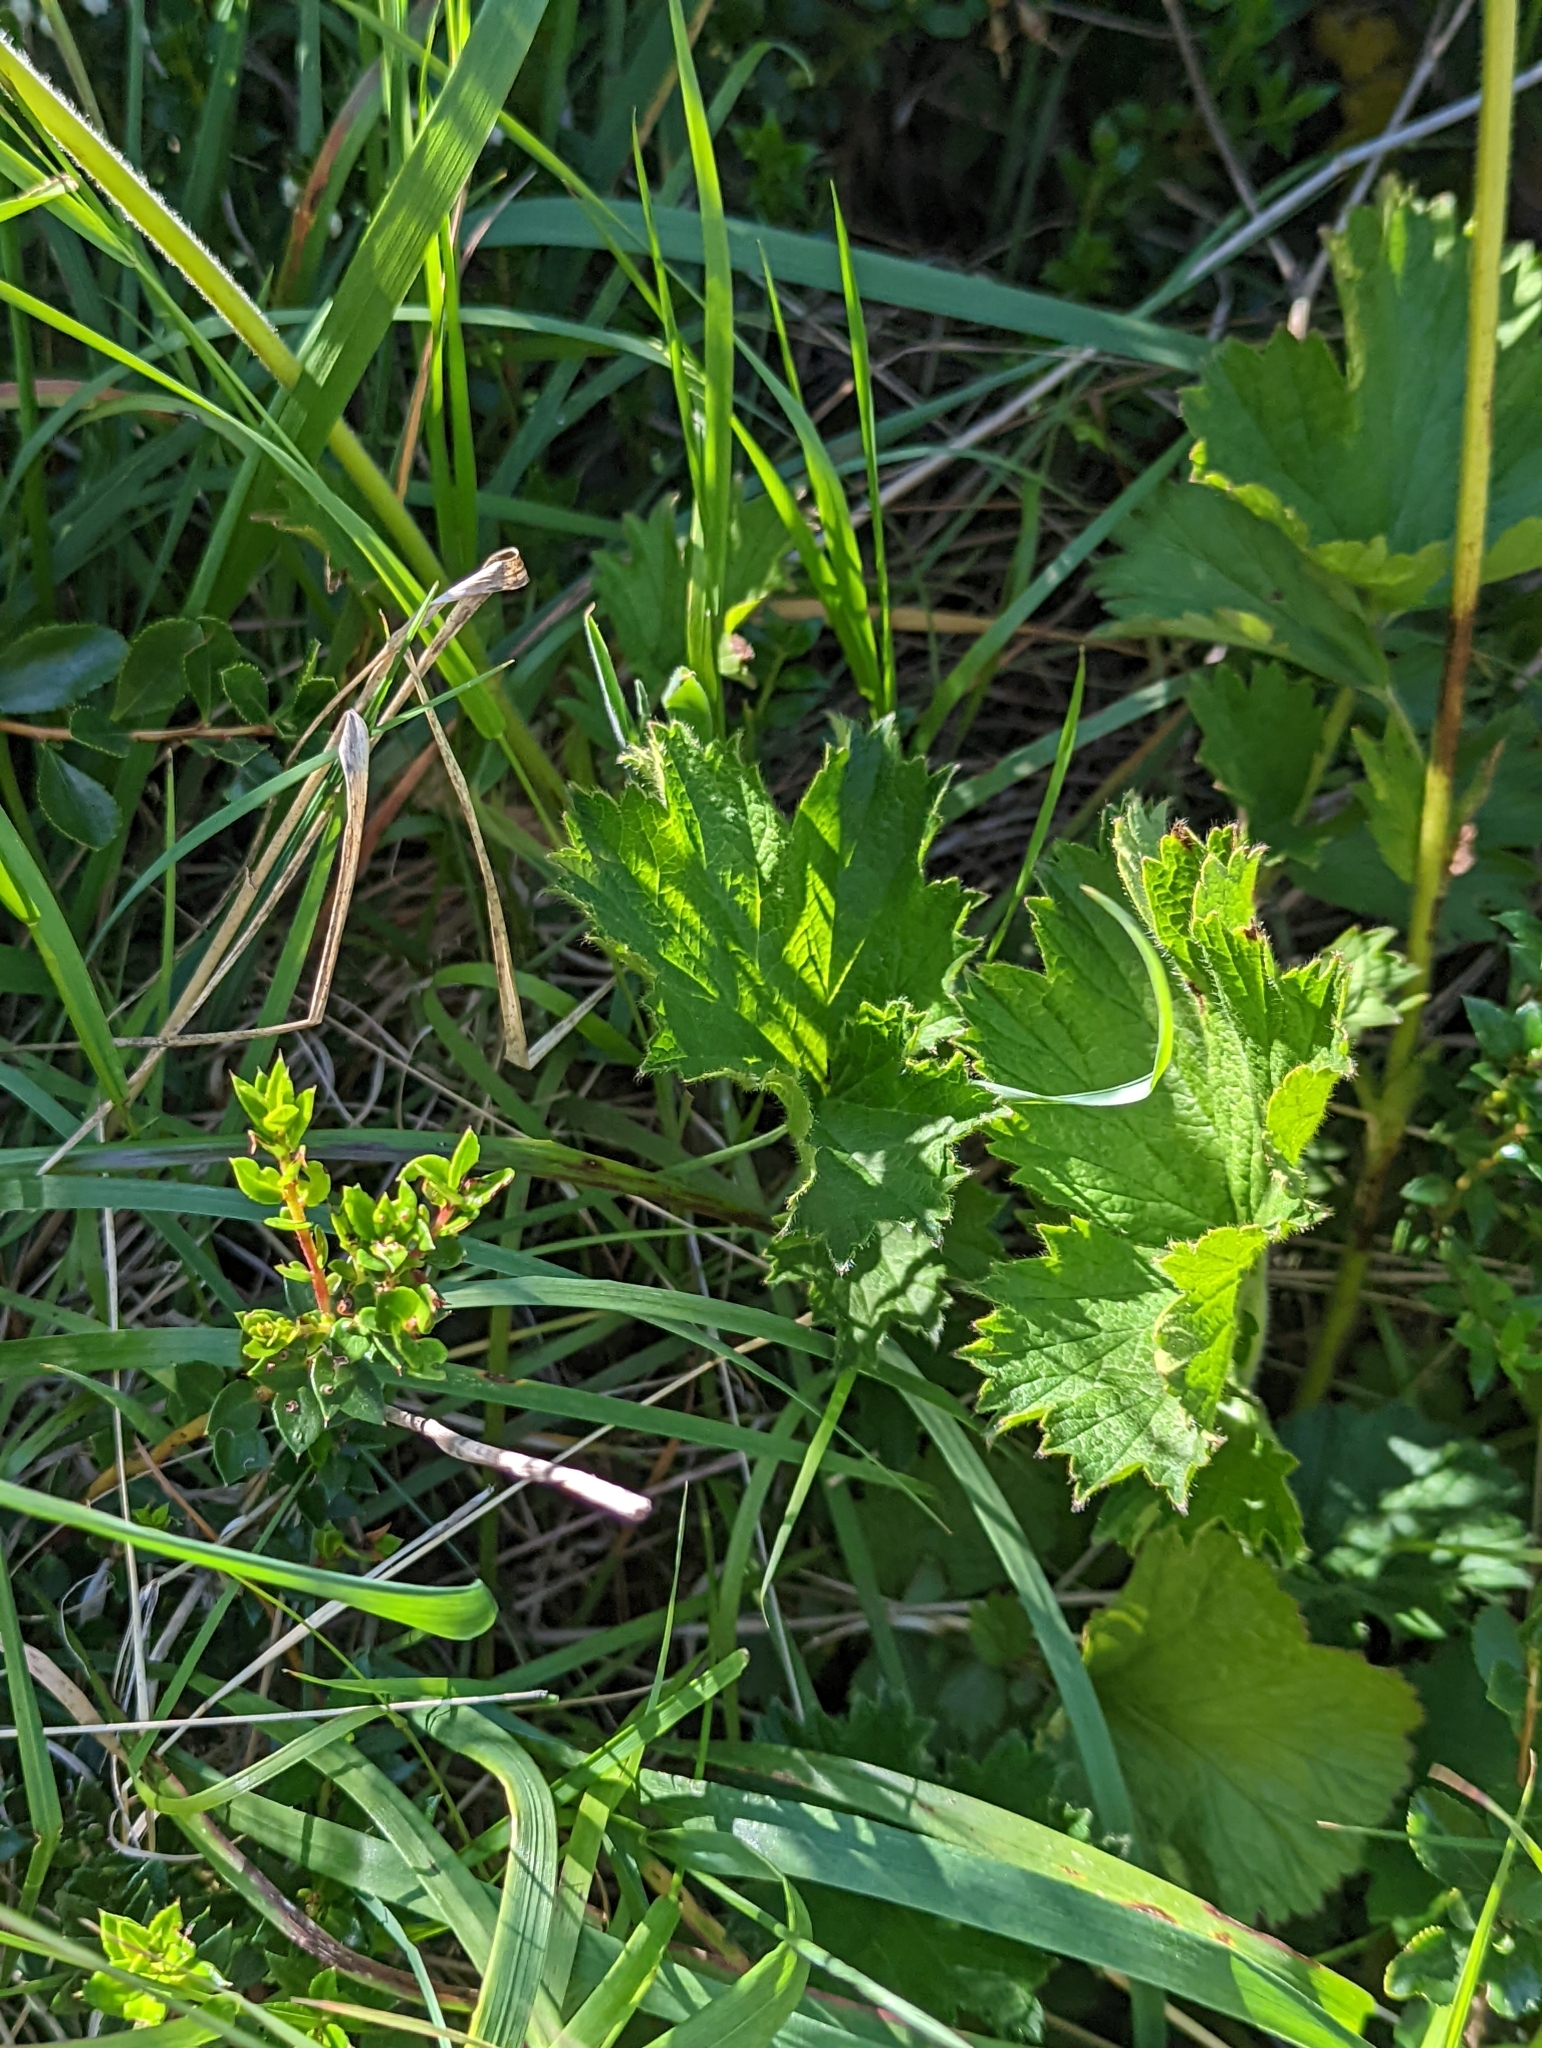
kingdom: Plantae
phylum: Tracheophyta
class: Magnoliopsida
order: Rosales
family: Rosaceae
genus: Geum
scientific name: Geum magellanicum
